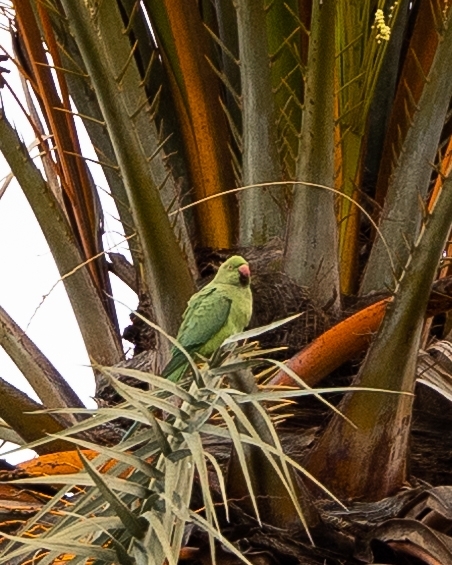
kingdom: Animalia
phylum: Chordata
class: Aves
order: Psittaciformes
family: Psittacidae
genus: Psittacula
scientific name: Psittacula krameri
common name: Rose-ringed parakeet
